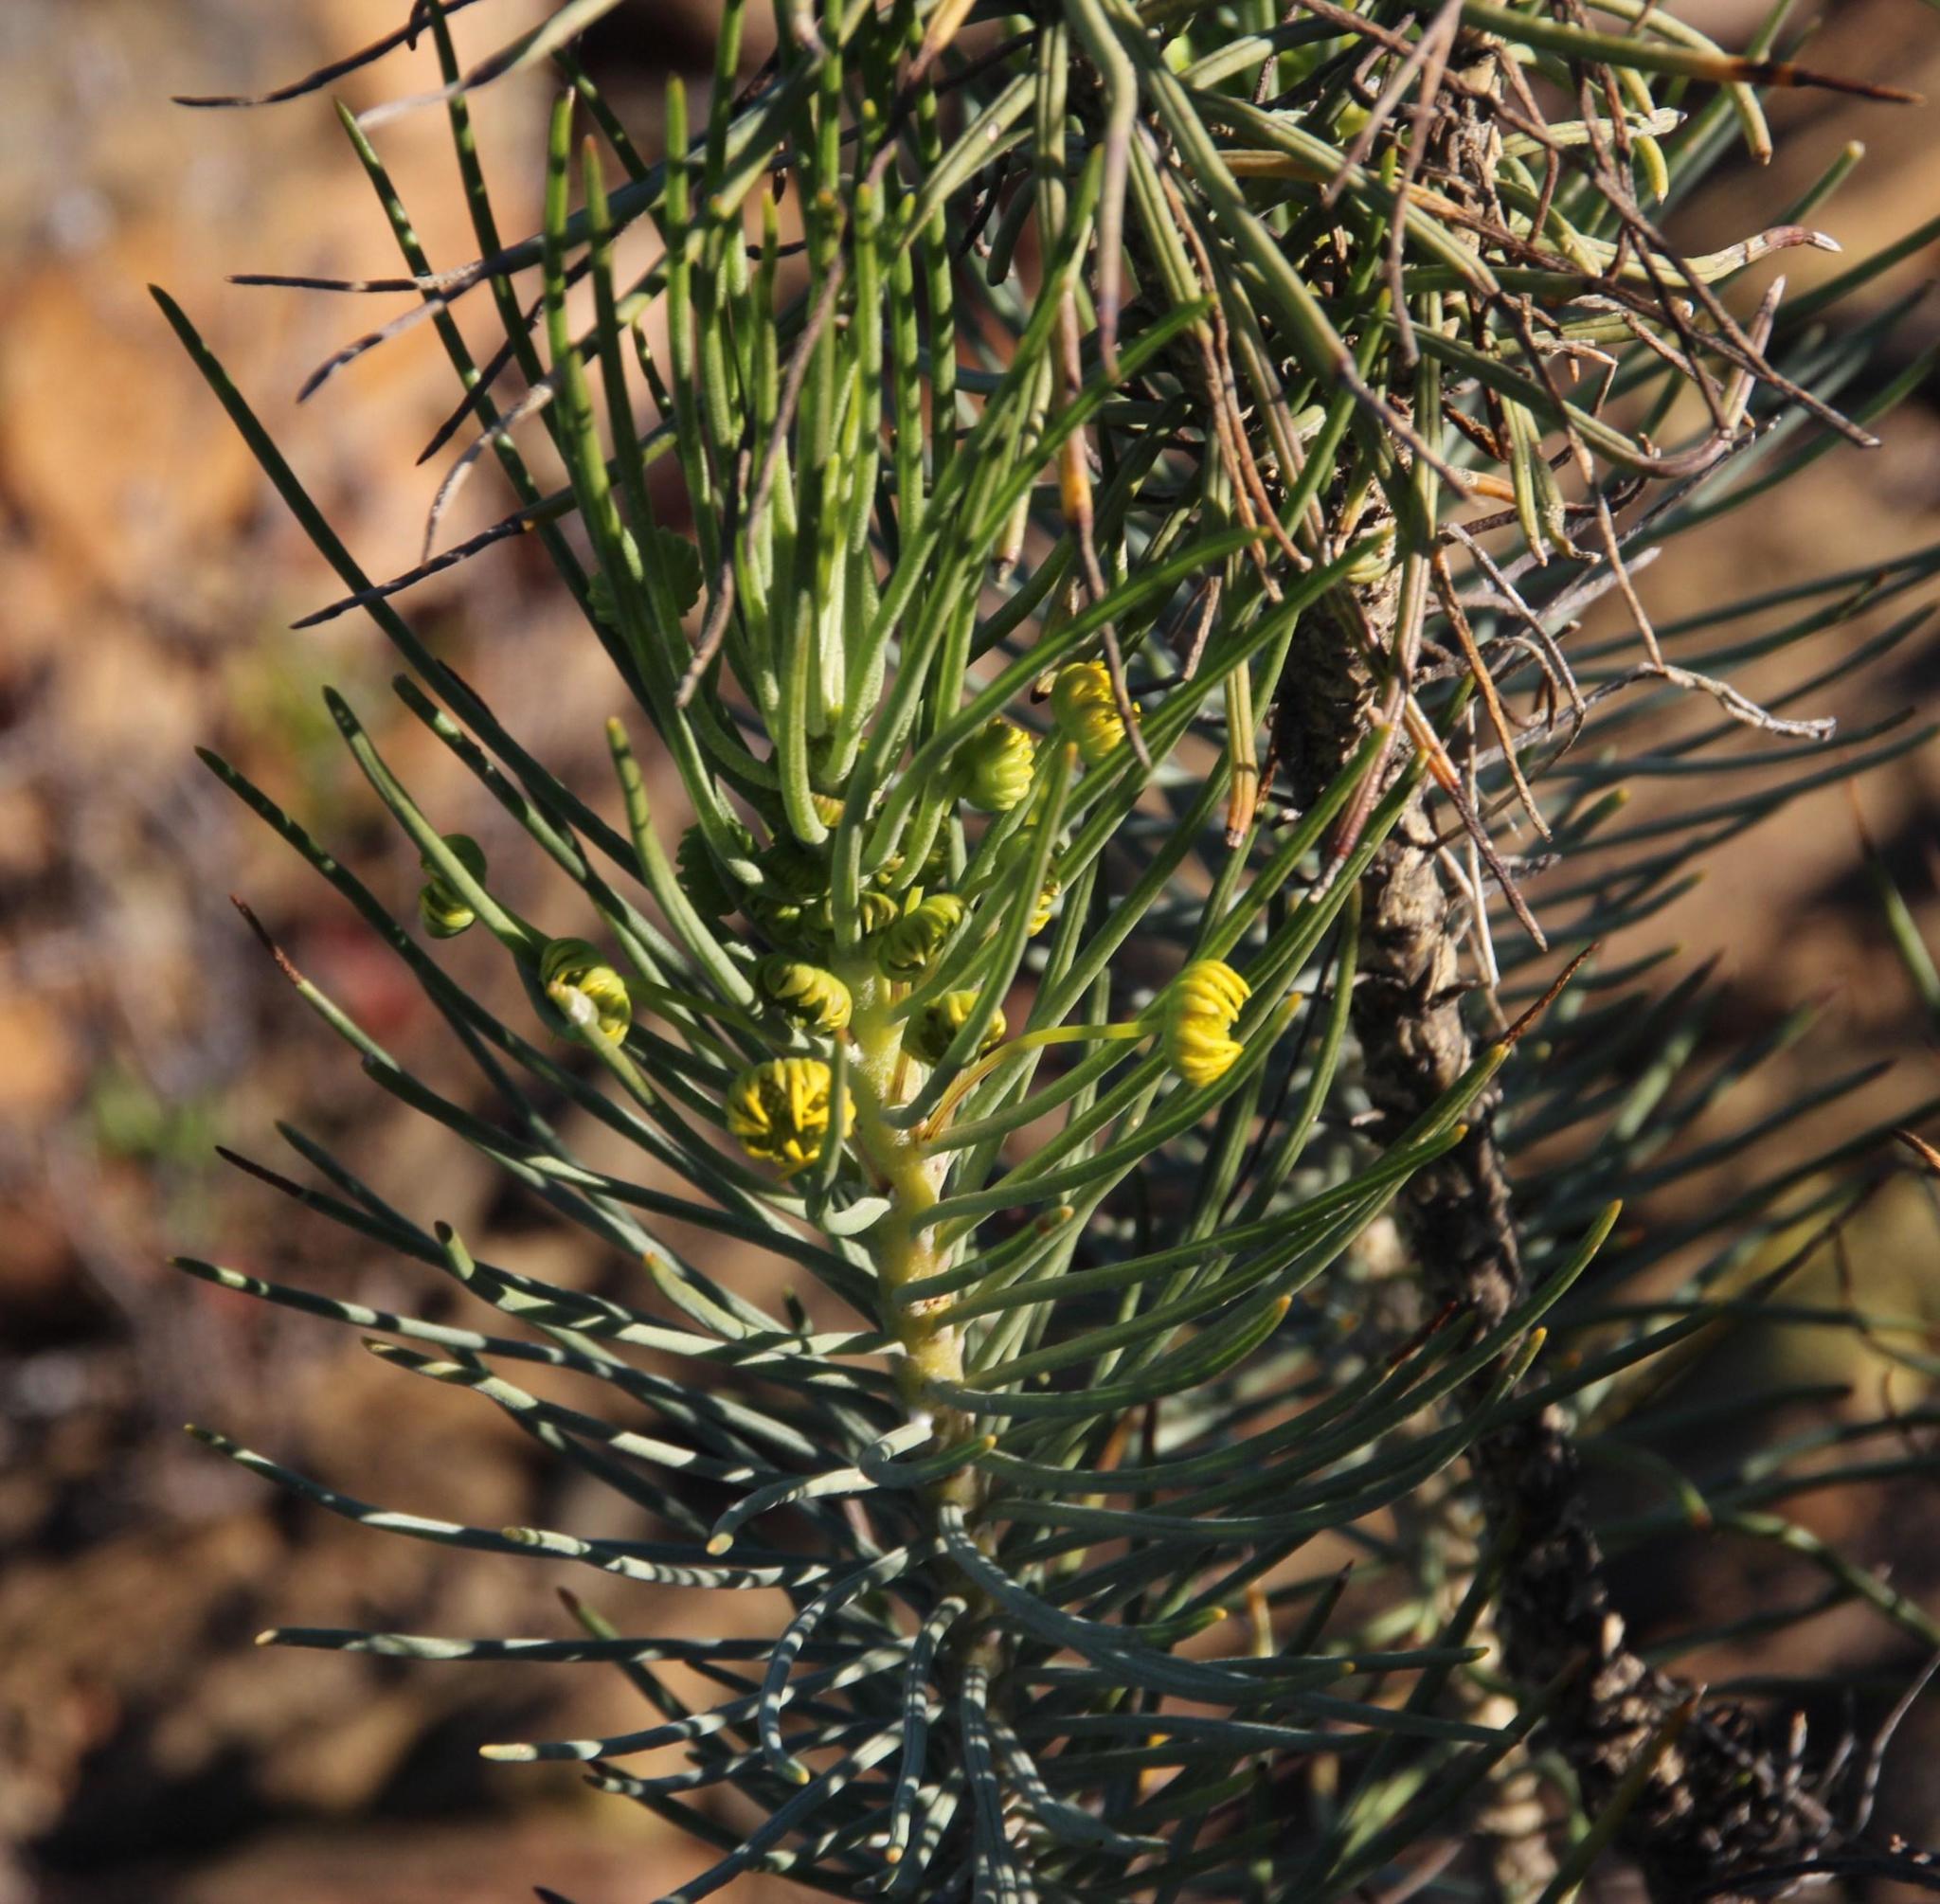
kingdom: Plantae
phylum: Tracheophyta
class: Magnoliopsida
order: Asterales
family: Asteraceae
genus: Euryops
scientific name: Euryops tenuissimus
